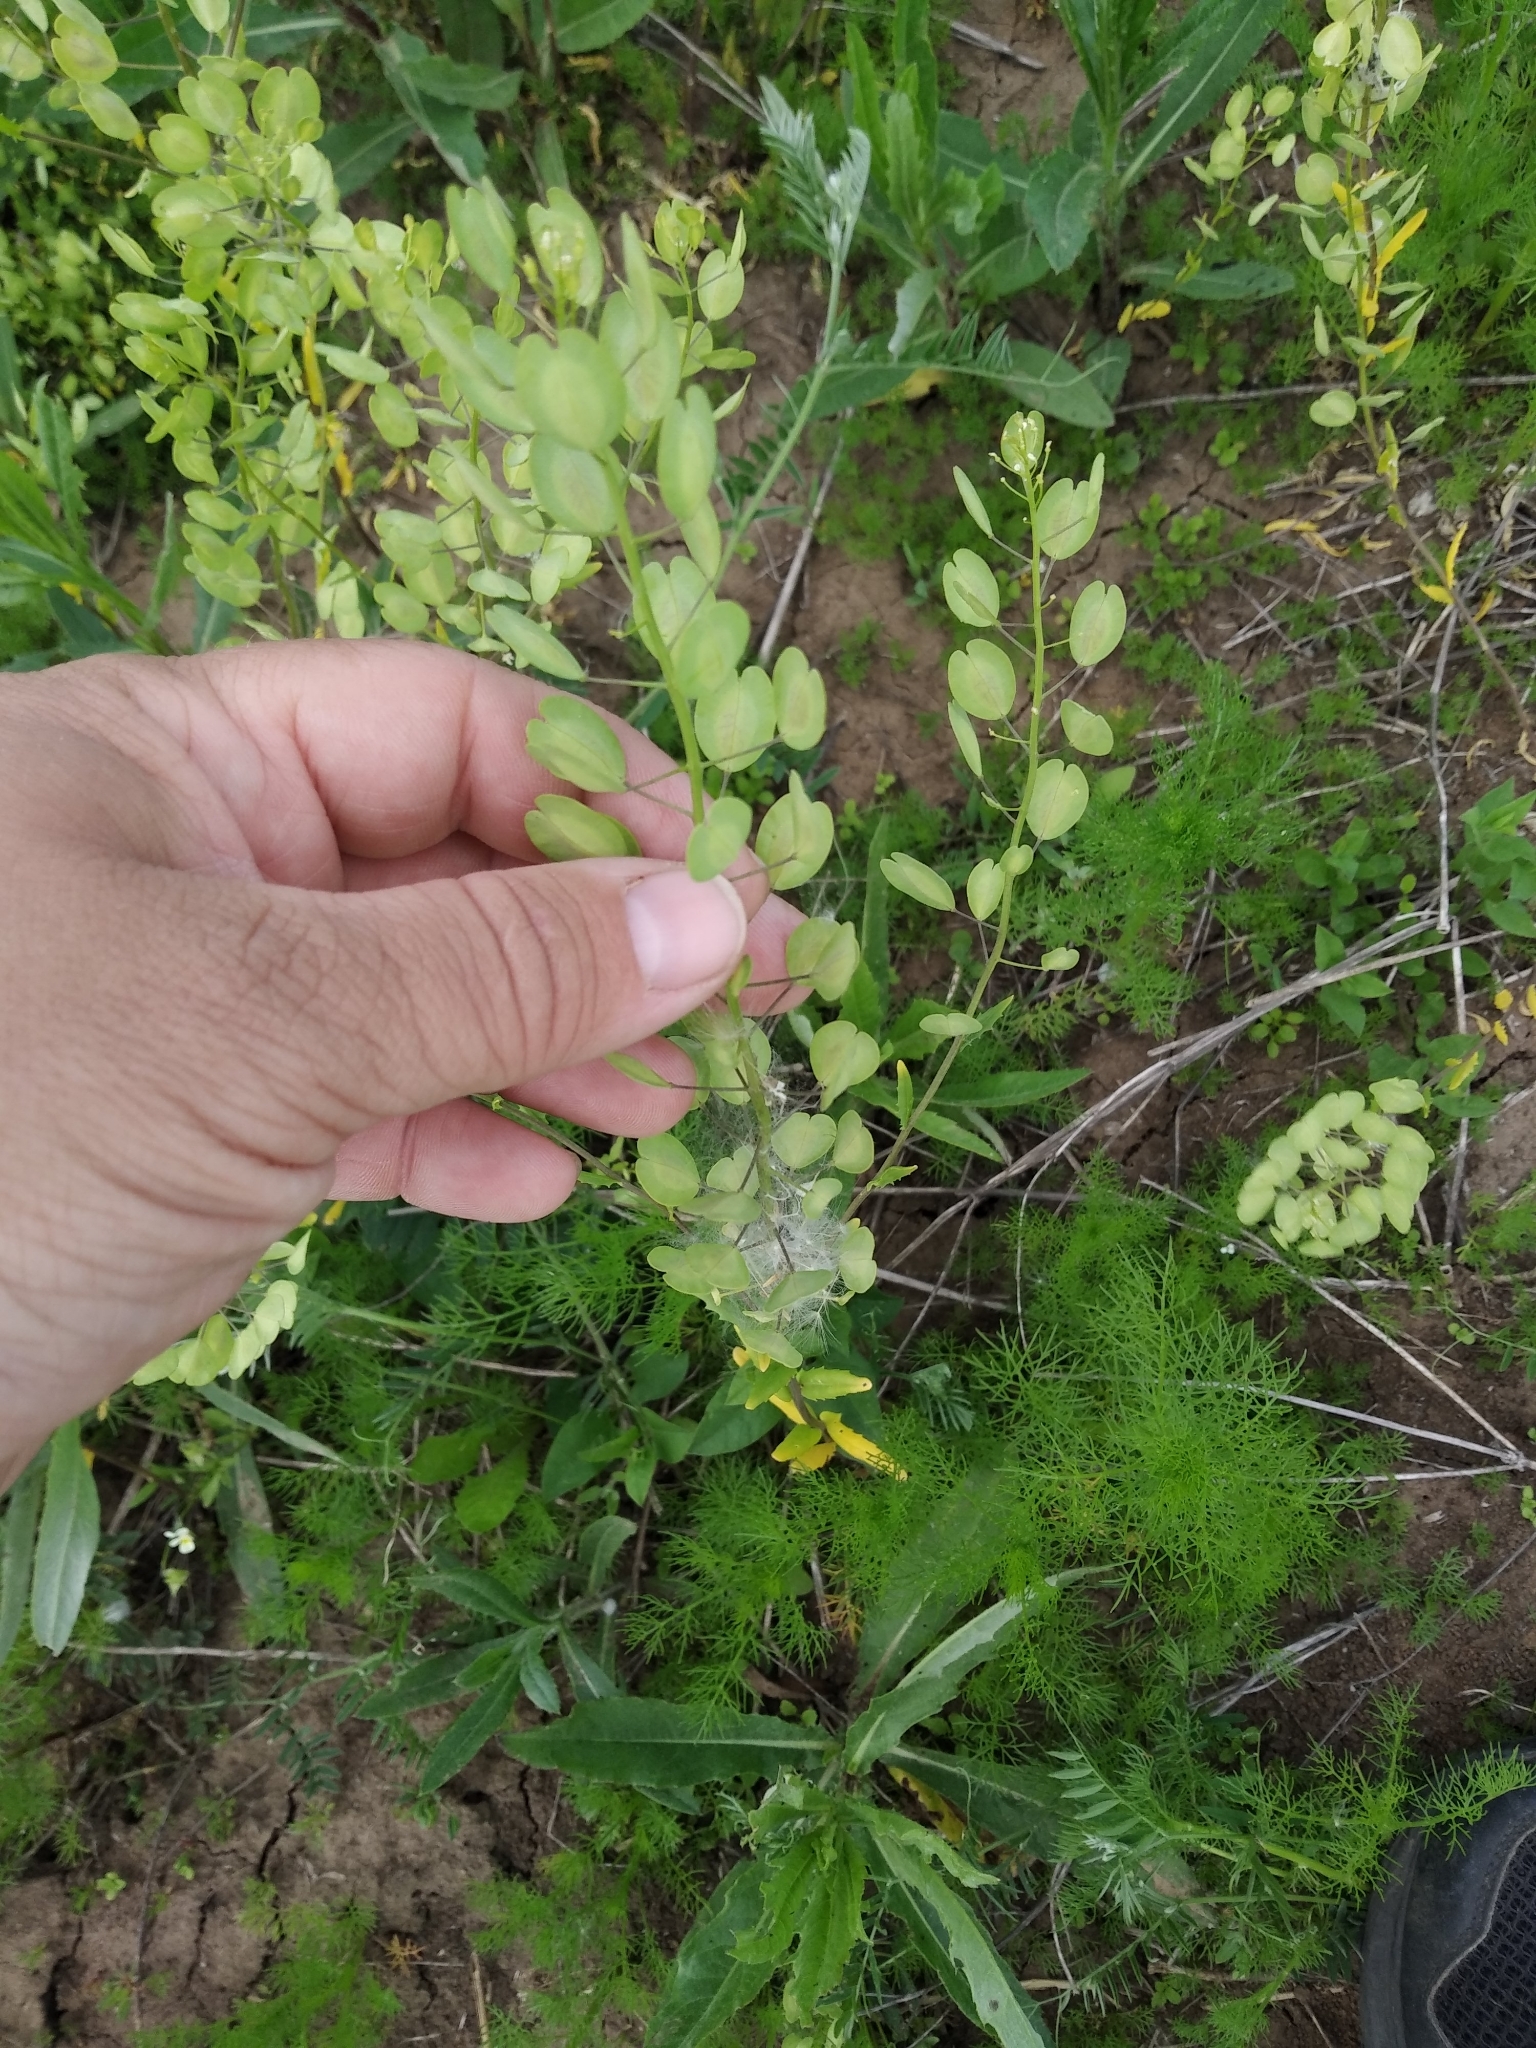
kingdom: Plantae
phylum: Tracheophyta
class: Magnoliopsida
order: Brassicales
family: Brassicaceae
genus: Thlaspi
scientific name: Thlaspi arvense
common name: Field pennycress
